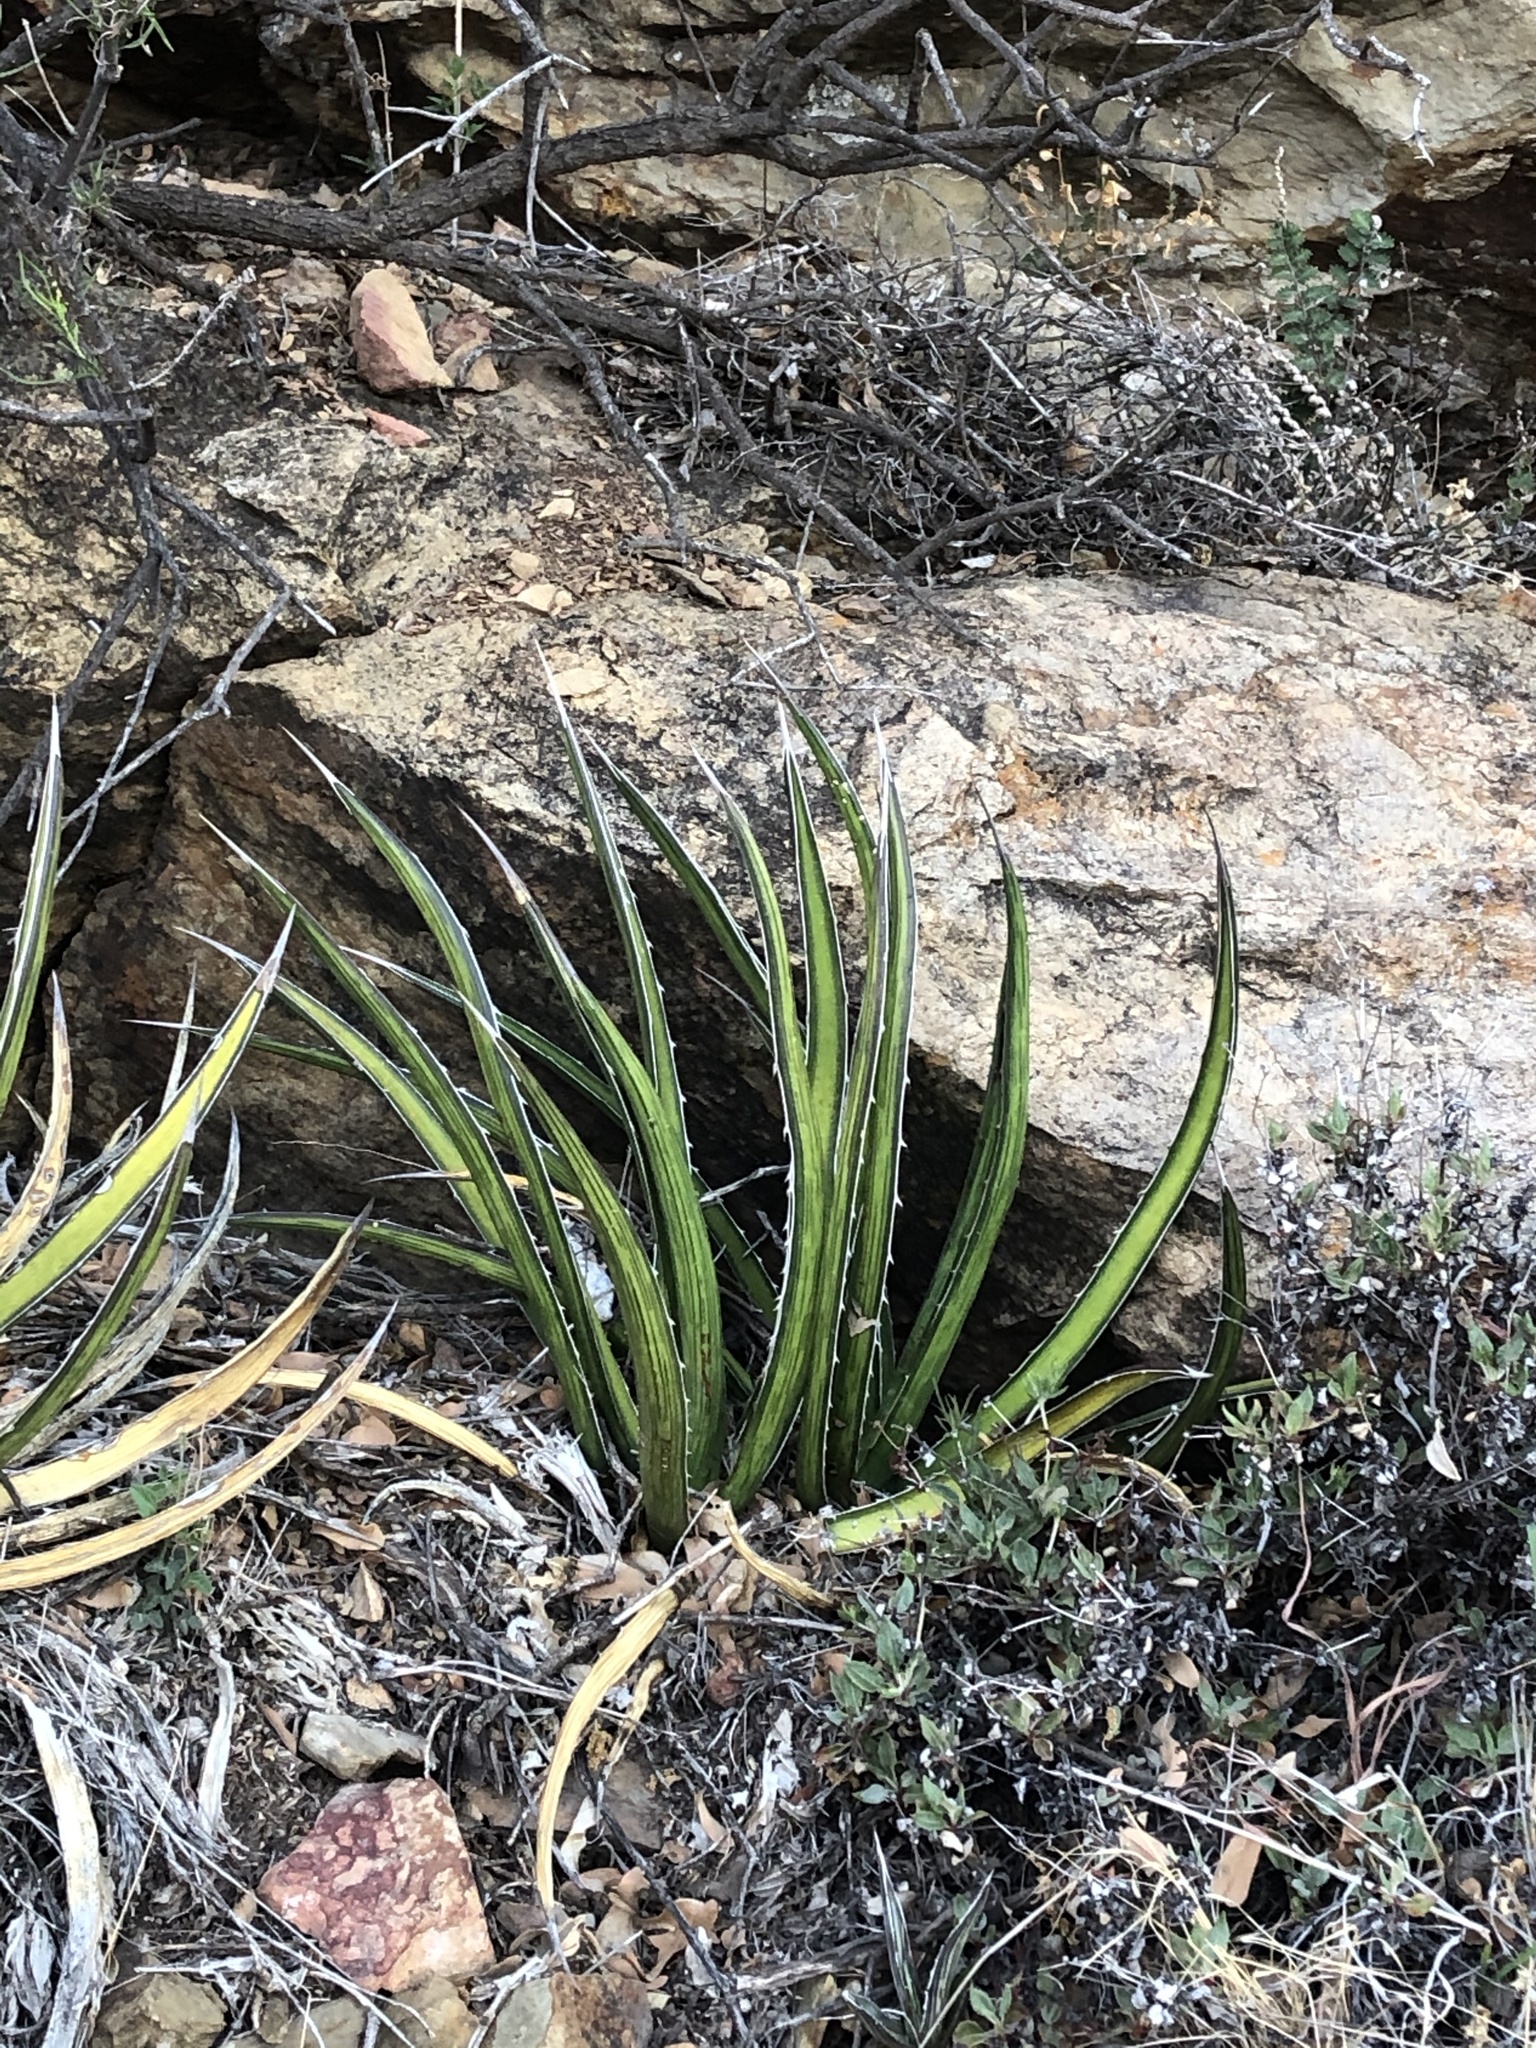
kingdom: Plantae
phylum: Tracheophyta
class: Liliopsida
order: Asparagales
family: Asparagaceae
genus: Agave
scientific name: Agave lechuguilla
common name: Lecheguilla agave
